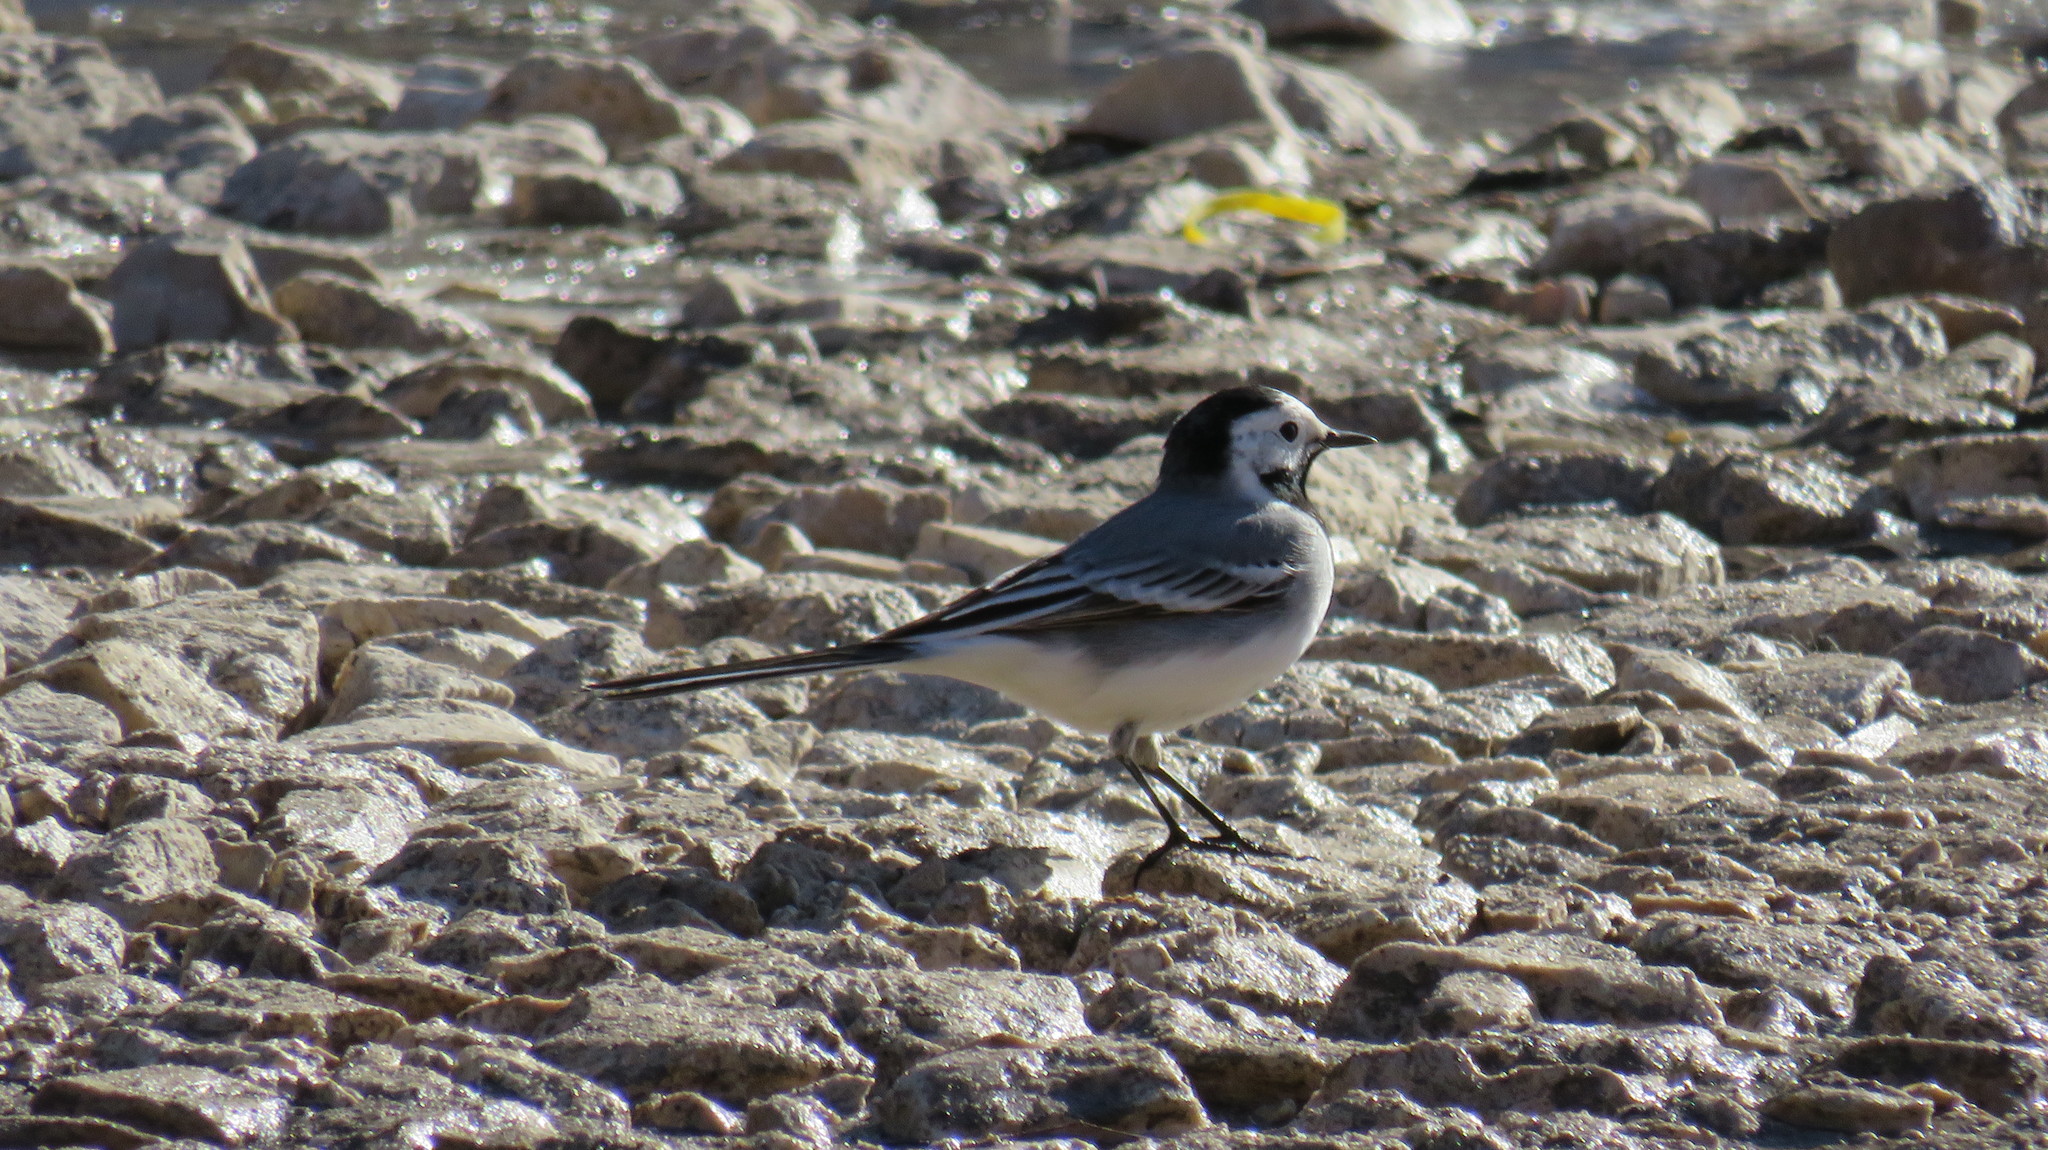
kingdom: Animalia
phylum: Chordata
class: Aves
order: Passeriformes
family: Motacillidae
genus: Motacilla
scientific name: Motacilla alba
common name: White wagtail
